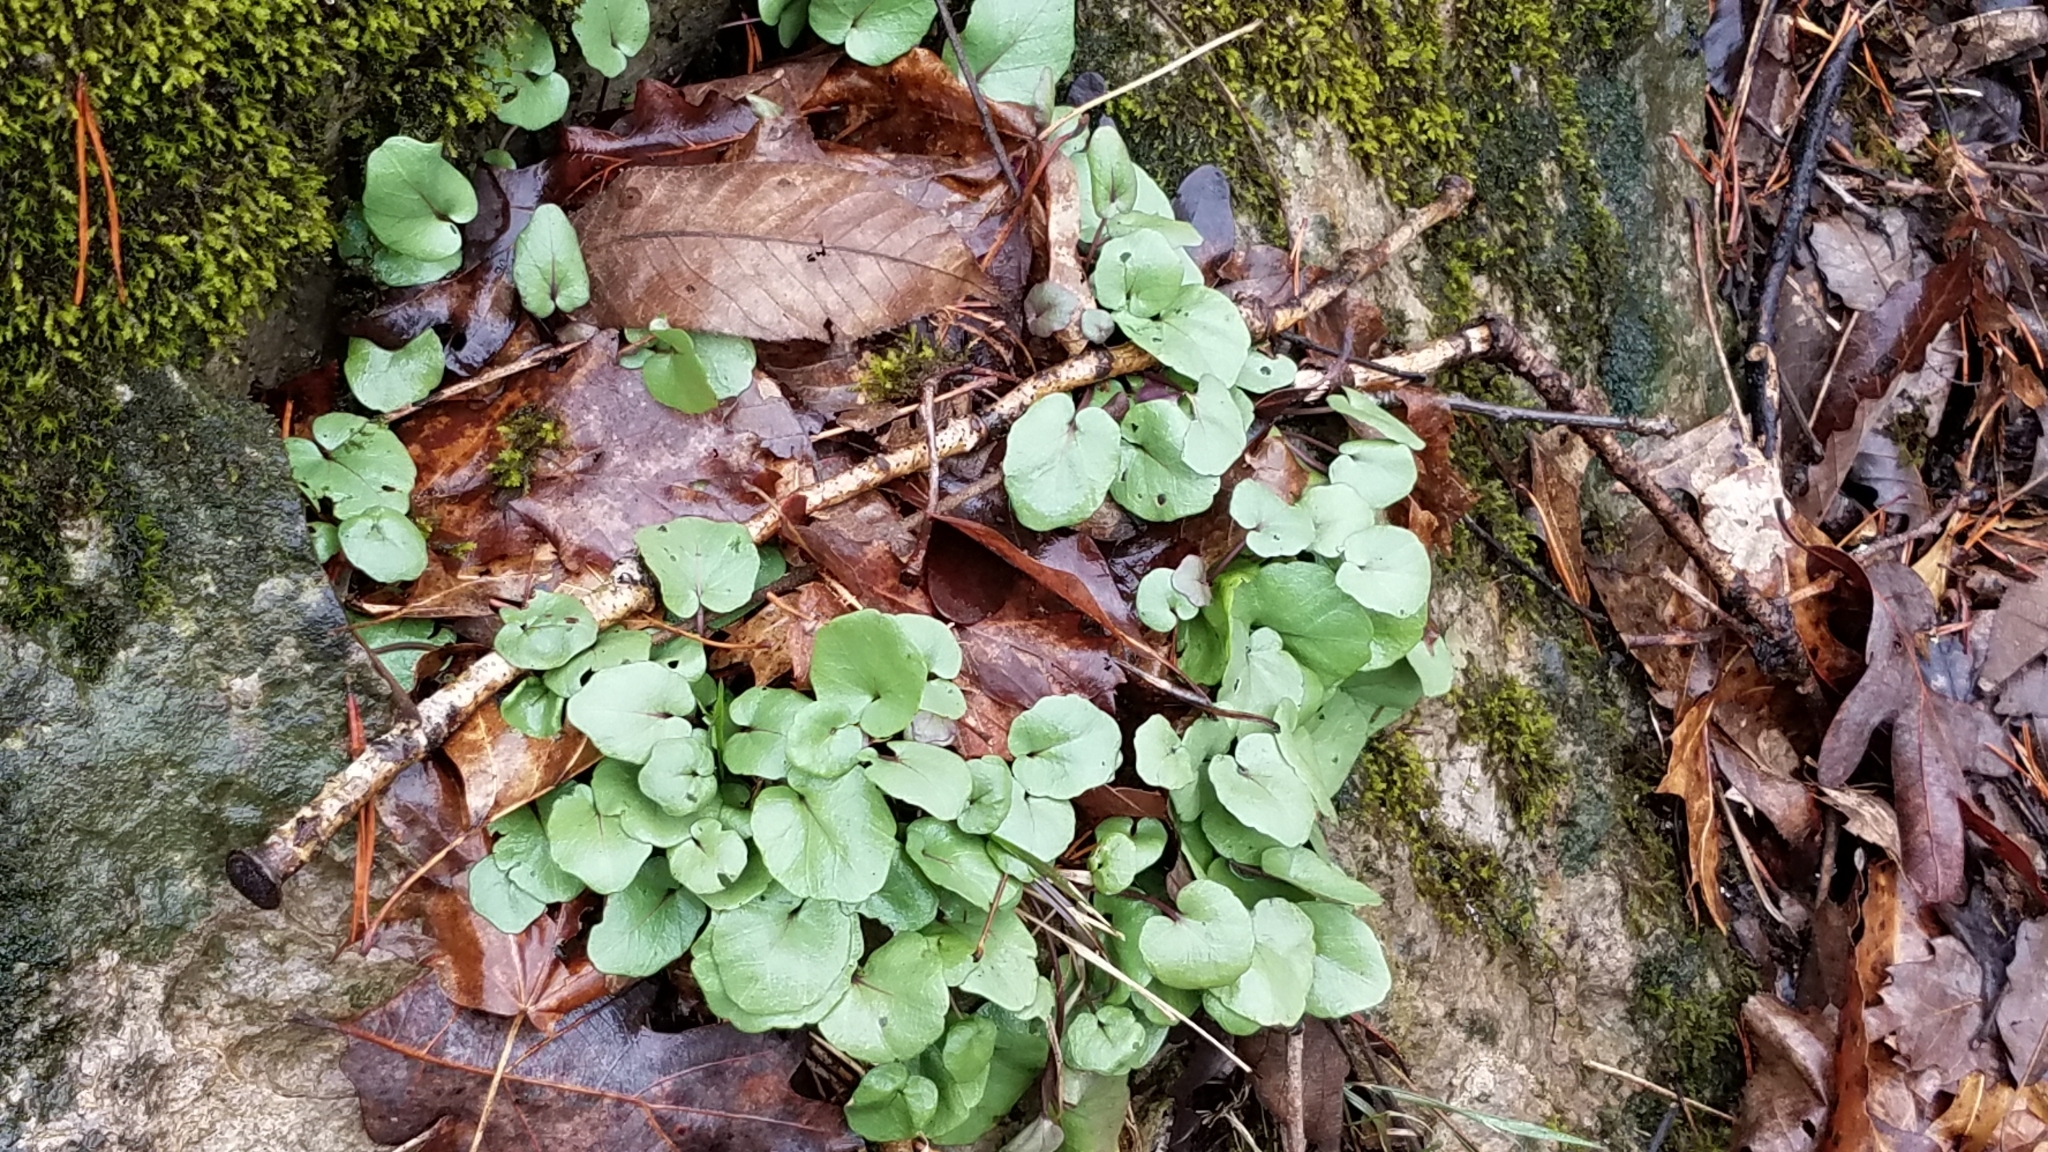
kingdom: Plantae
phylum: Tracheophyta
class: Magnoliopsida
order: Solanales
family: Convolvulaceae
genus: Dichondra
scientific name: Dichondra carolinensis
